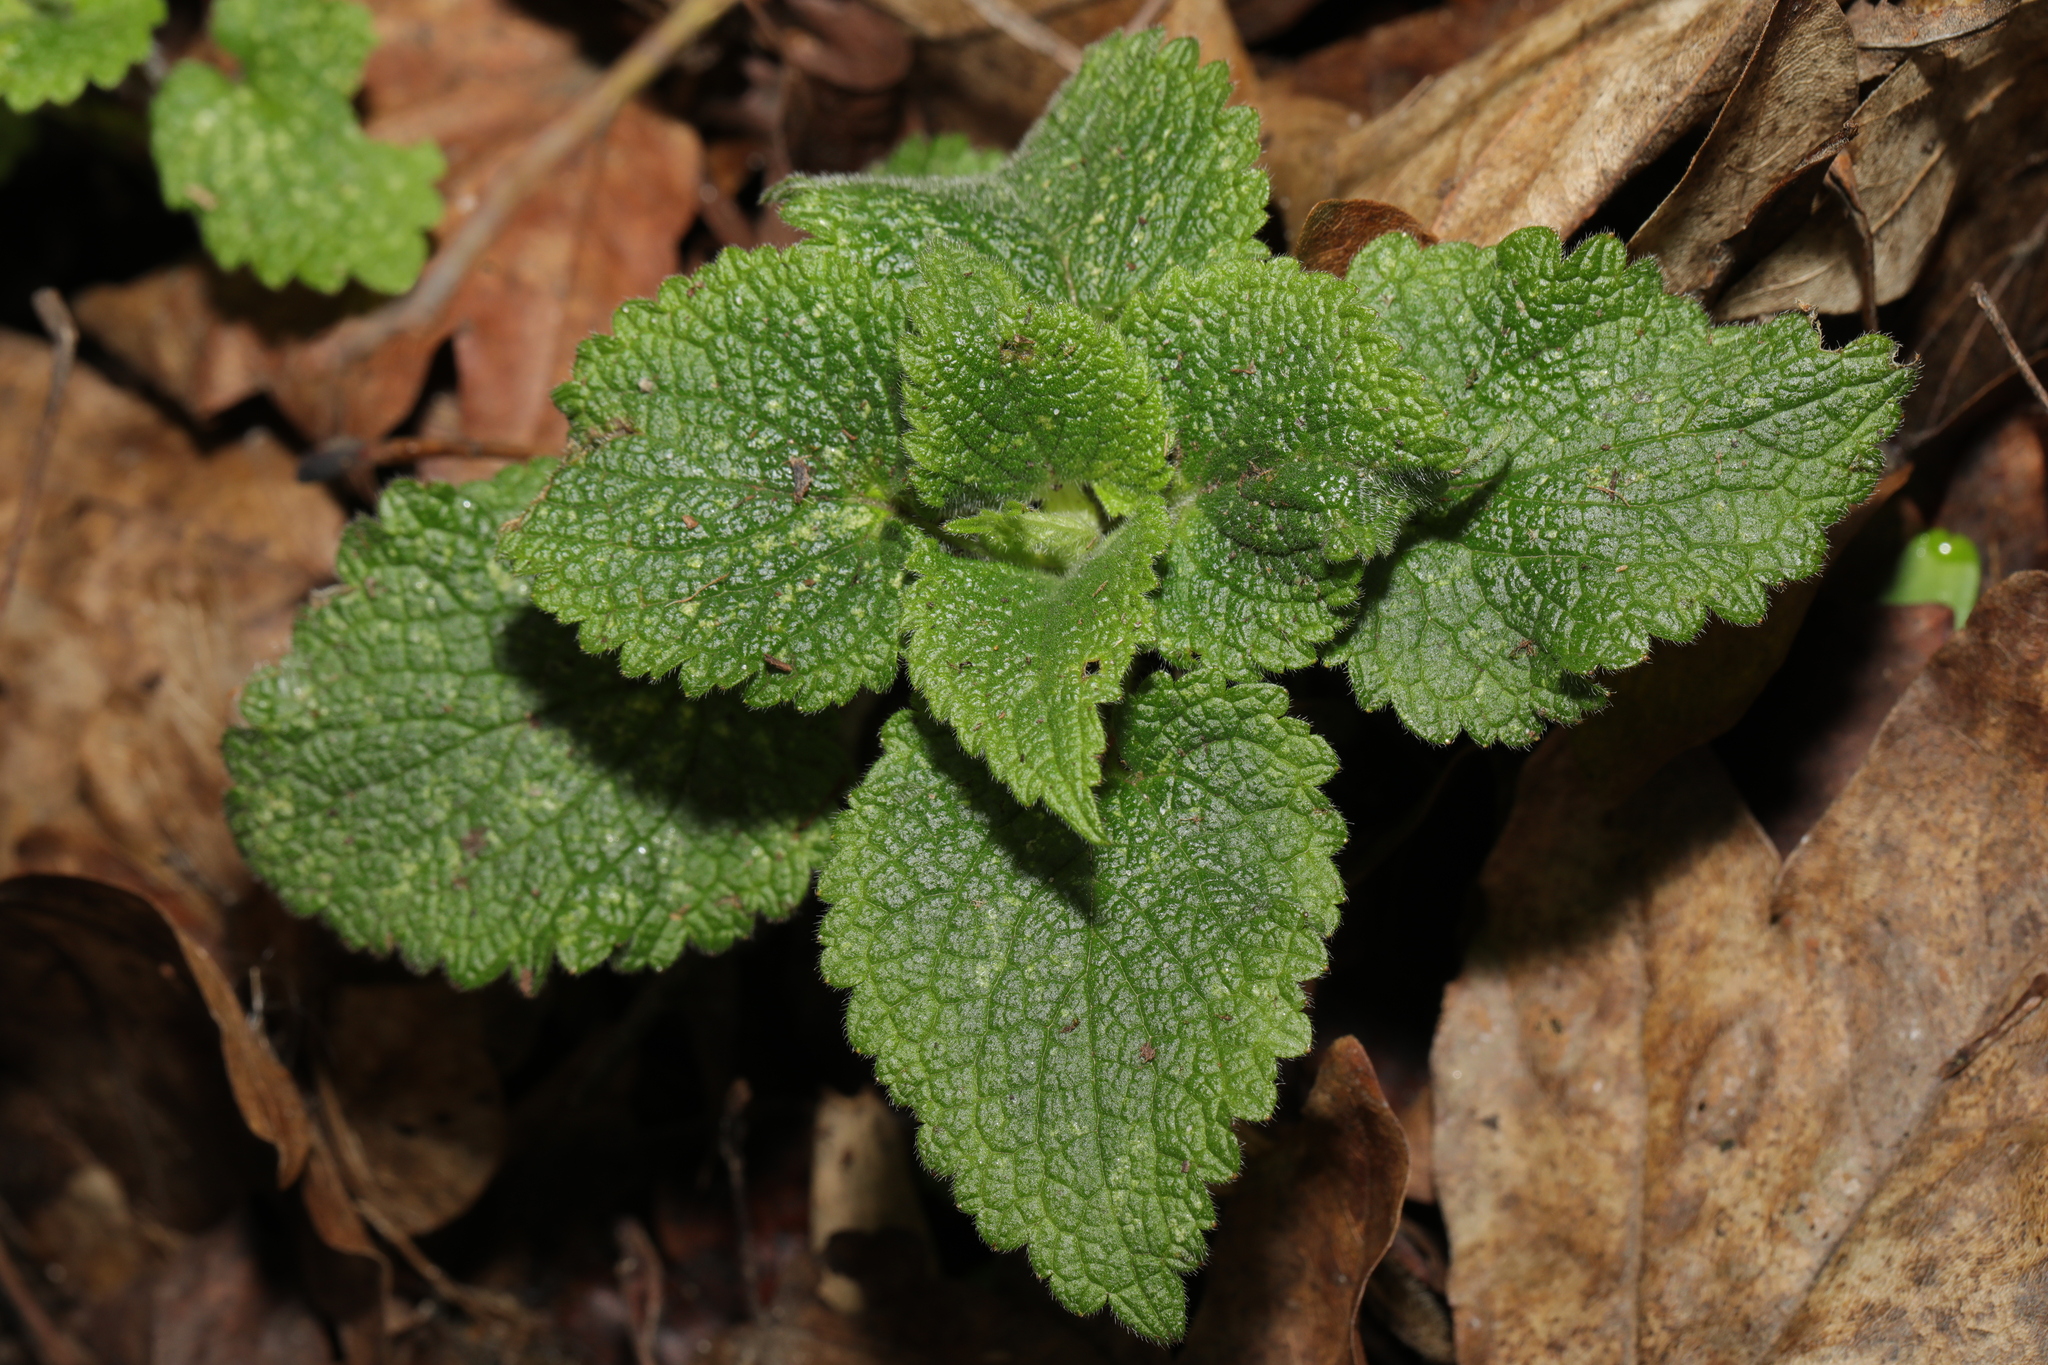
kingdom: Plantae
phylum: Tracheophyta
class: Magnoliopsida
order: Lamiales
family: Lamiaceae
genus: Lamium
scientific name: Lamium album
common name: White dead-nettle
